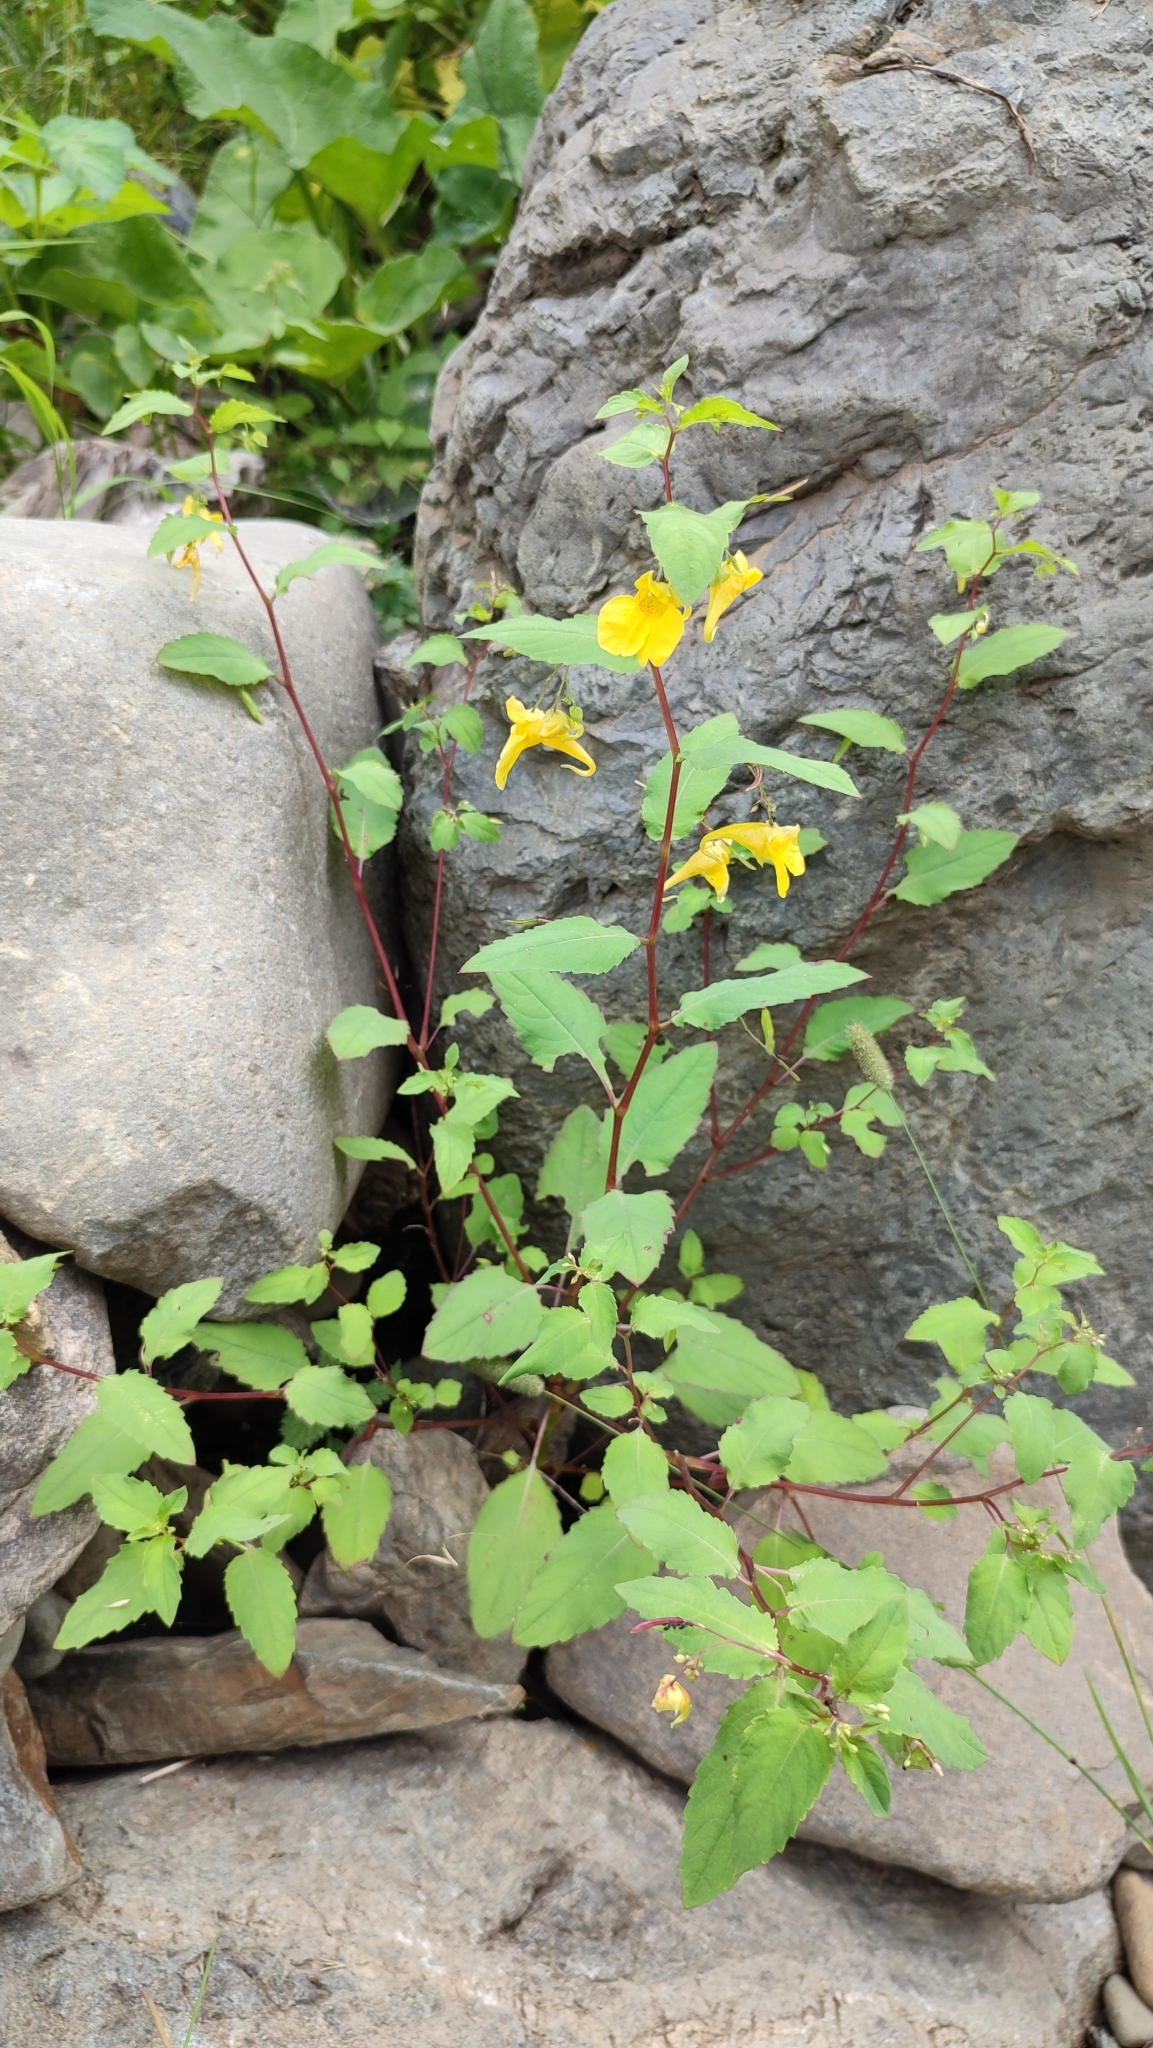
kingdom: Plantae
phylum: Tracheophyta
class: Magnoliopsida
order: Ericales
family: Balsaminaceae
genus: Impatiens
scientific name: Impatiens noli-tangere
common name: Touch-me-not balsam
